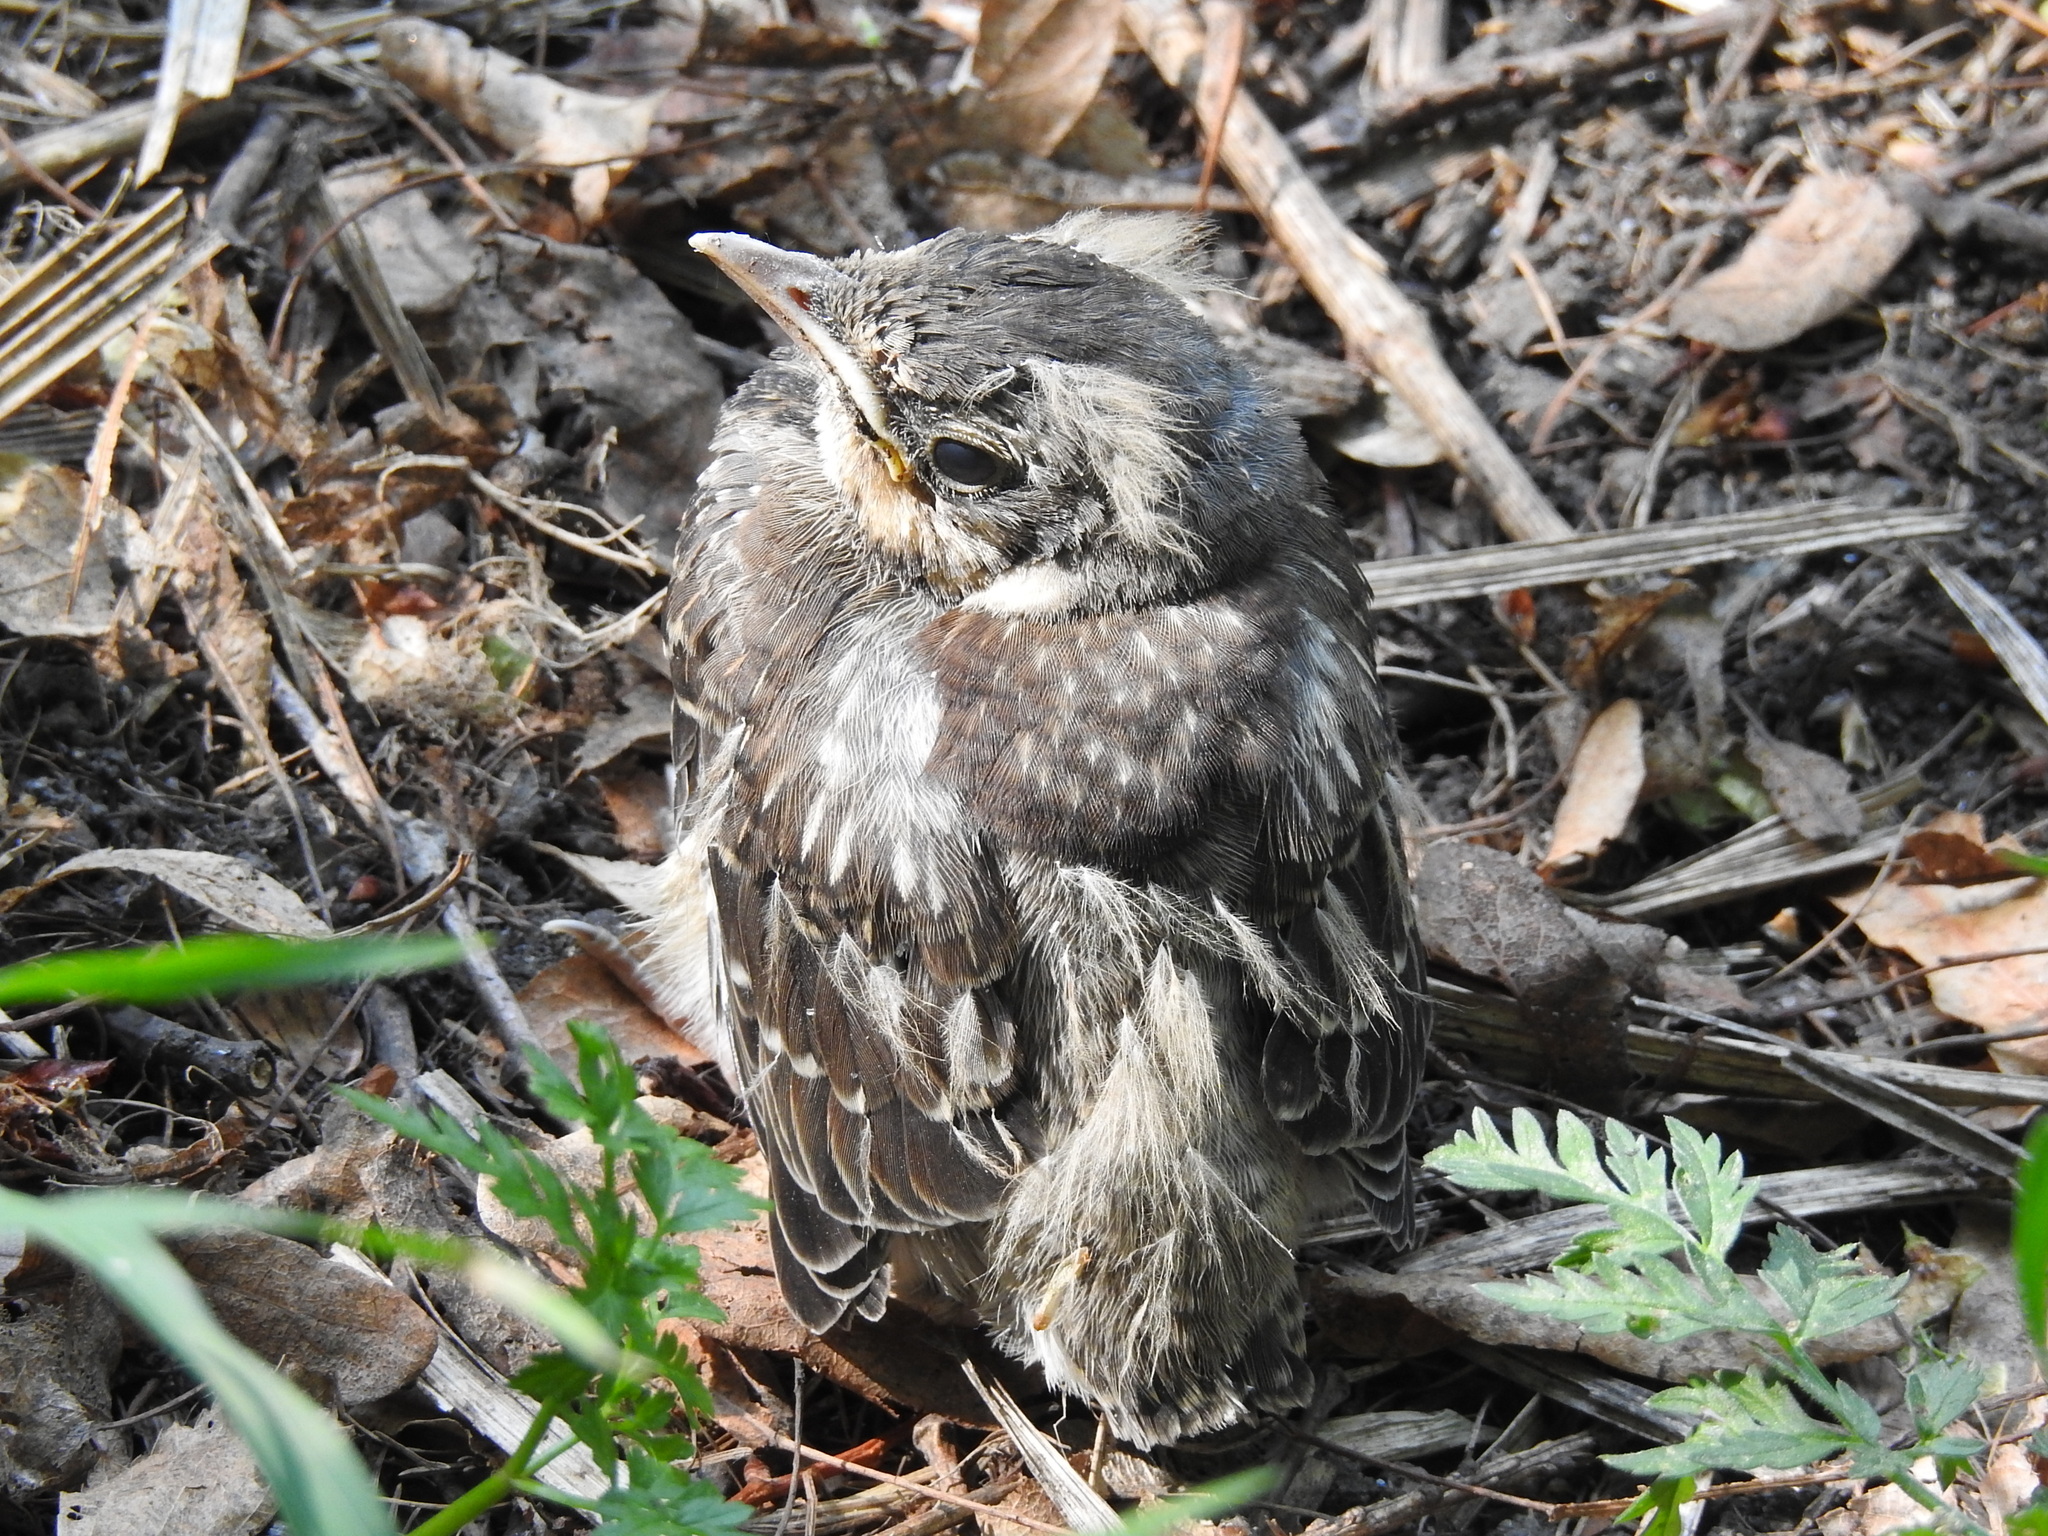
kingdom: Animalia
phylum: Chordata
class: Aves
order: Passeriformes
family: Turdidae
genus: Turdus
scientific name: Turdus pilaris
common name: Fieldfare
